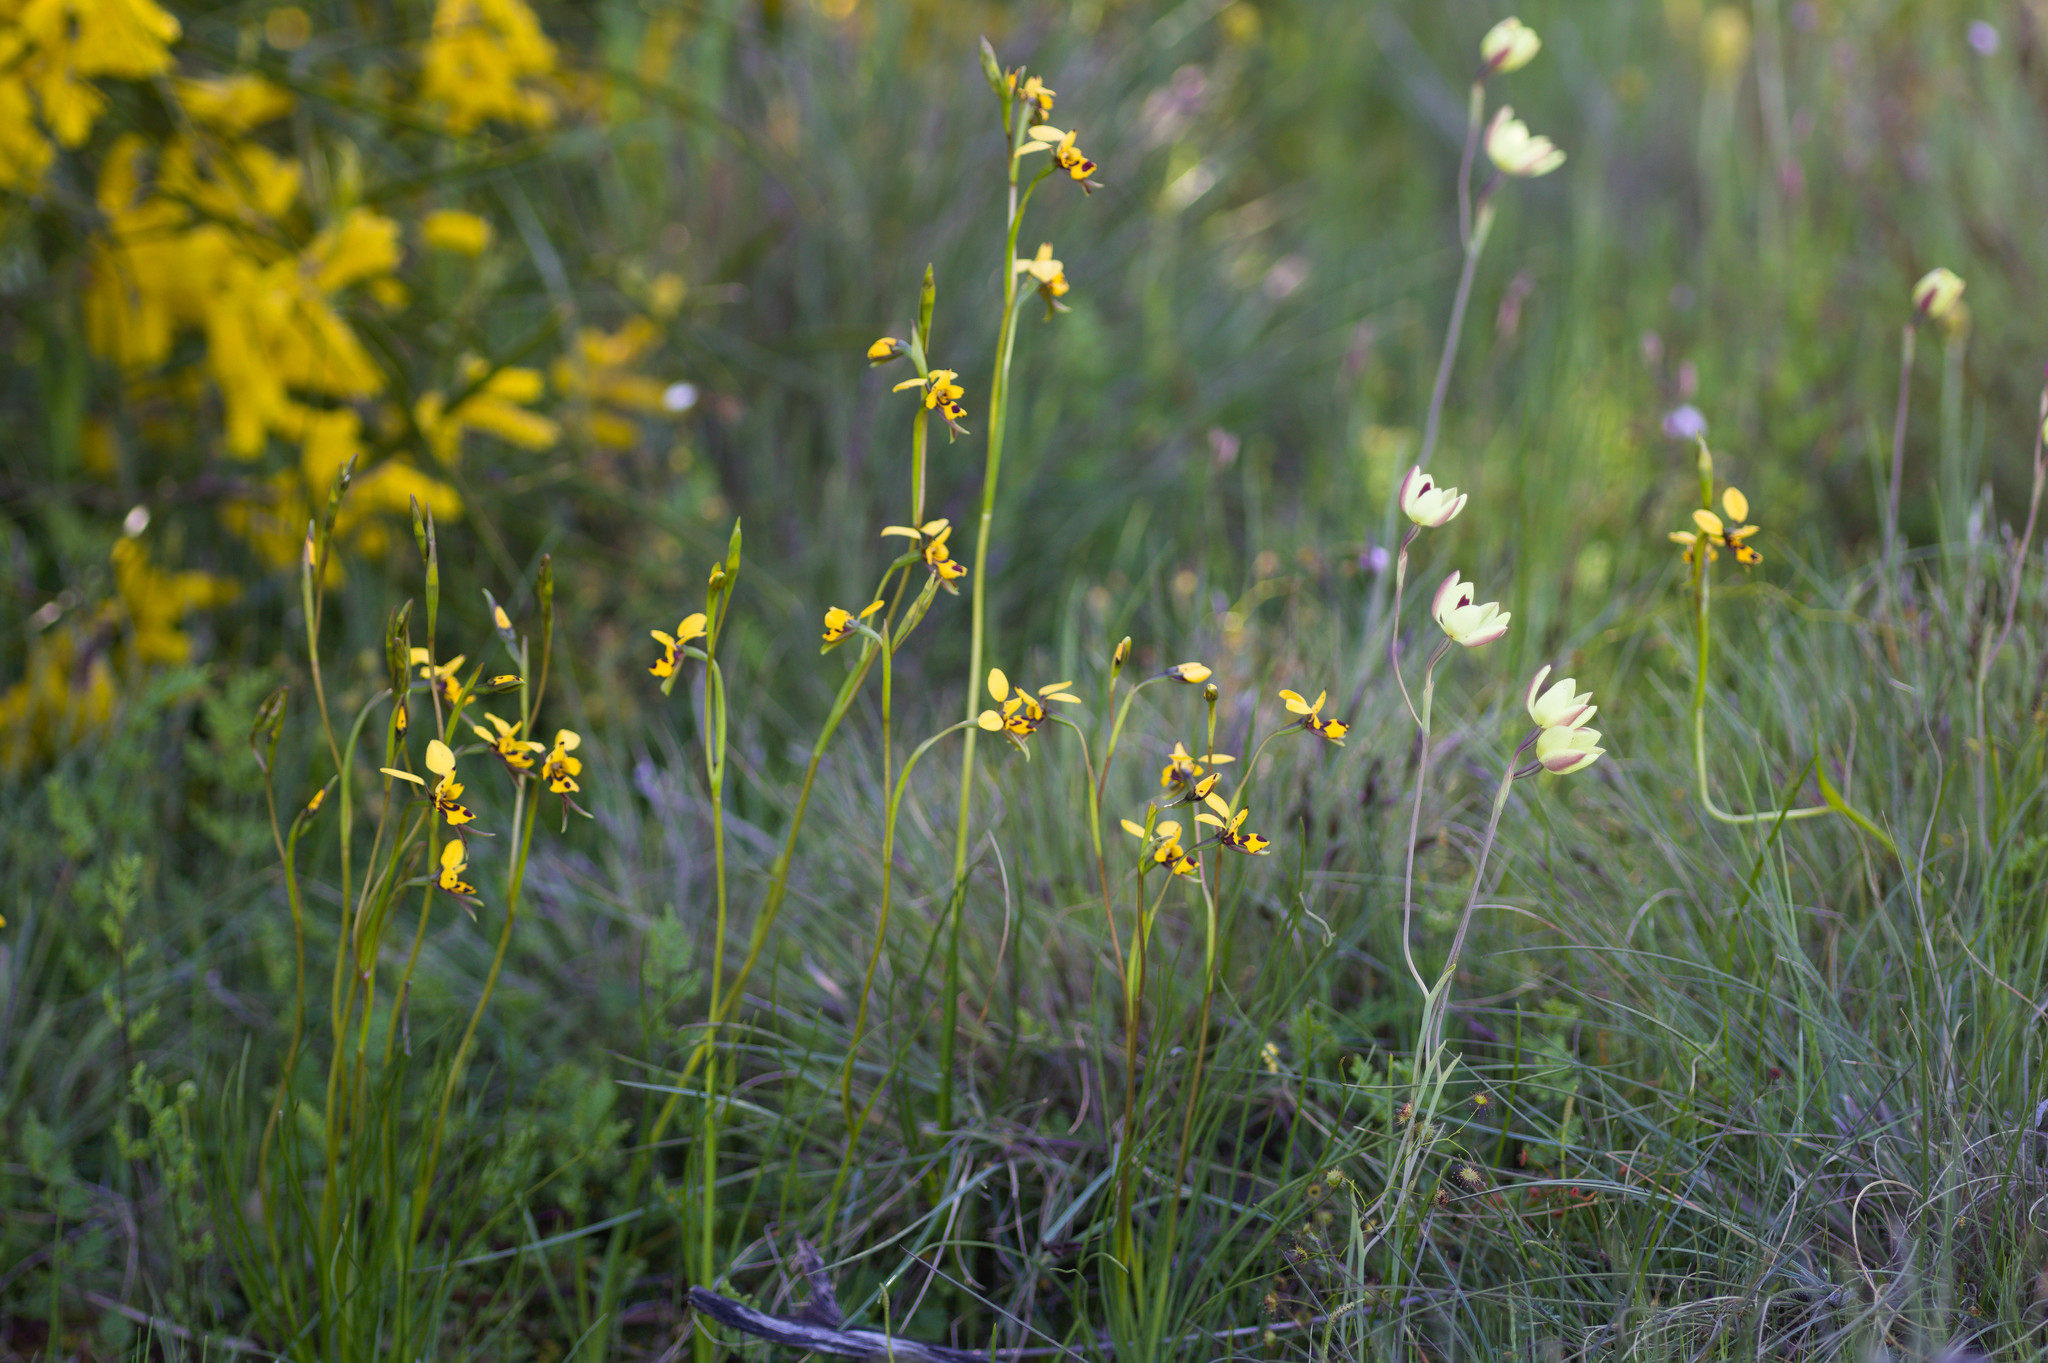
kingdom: Plantae
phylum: Tracheophyta
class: Liliopsida
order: Asparagales
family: Orchidaceae
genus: Diuris
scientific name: Diuris septentrionalis
